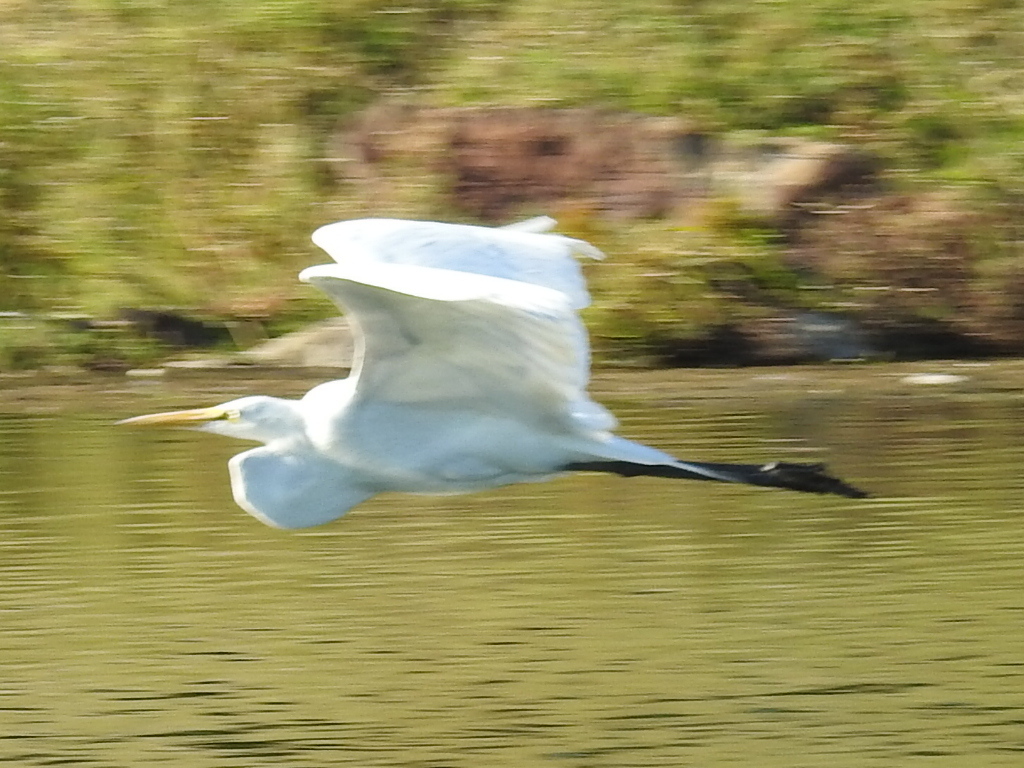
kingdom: Animalia
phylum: Chordata
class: Aves
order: Pelecaniformes
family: Ardeidae
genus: Ardea
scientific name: Ardea alba
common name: Great egret
